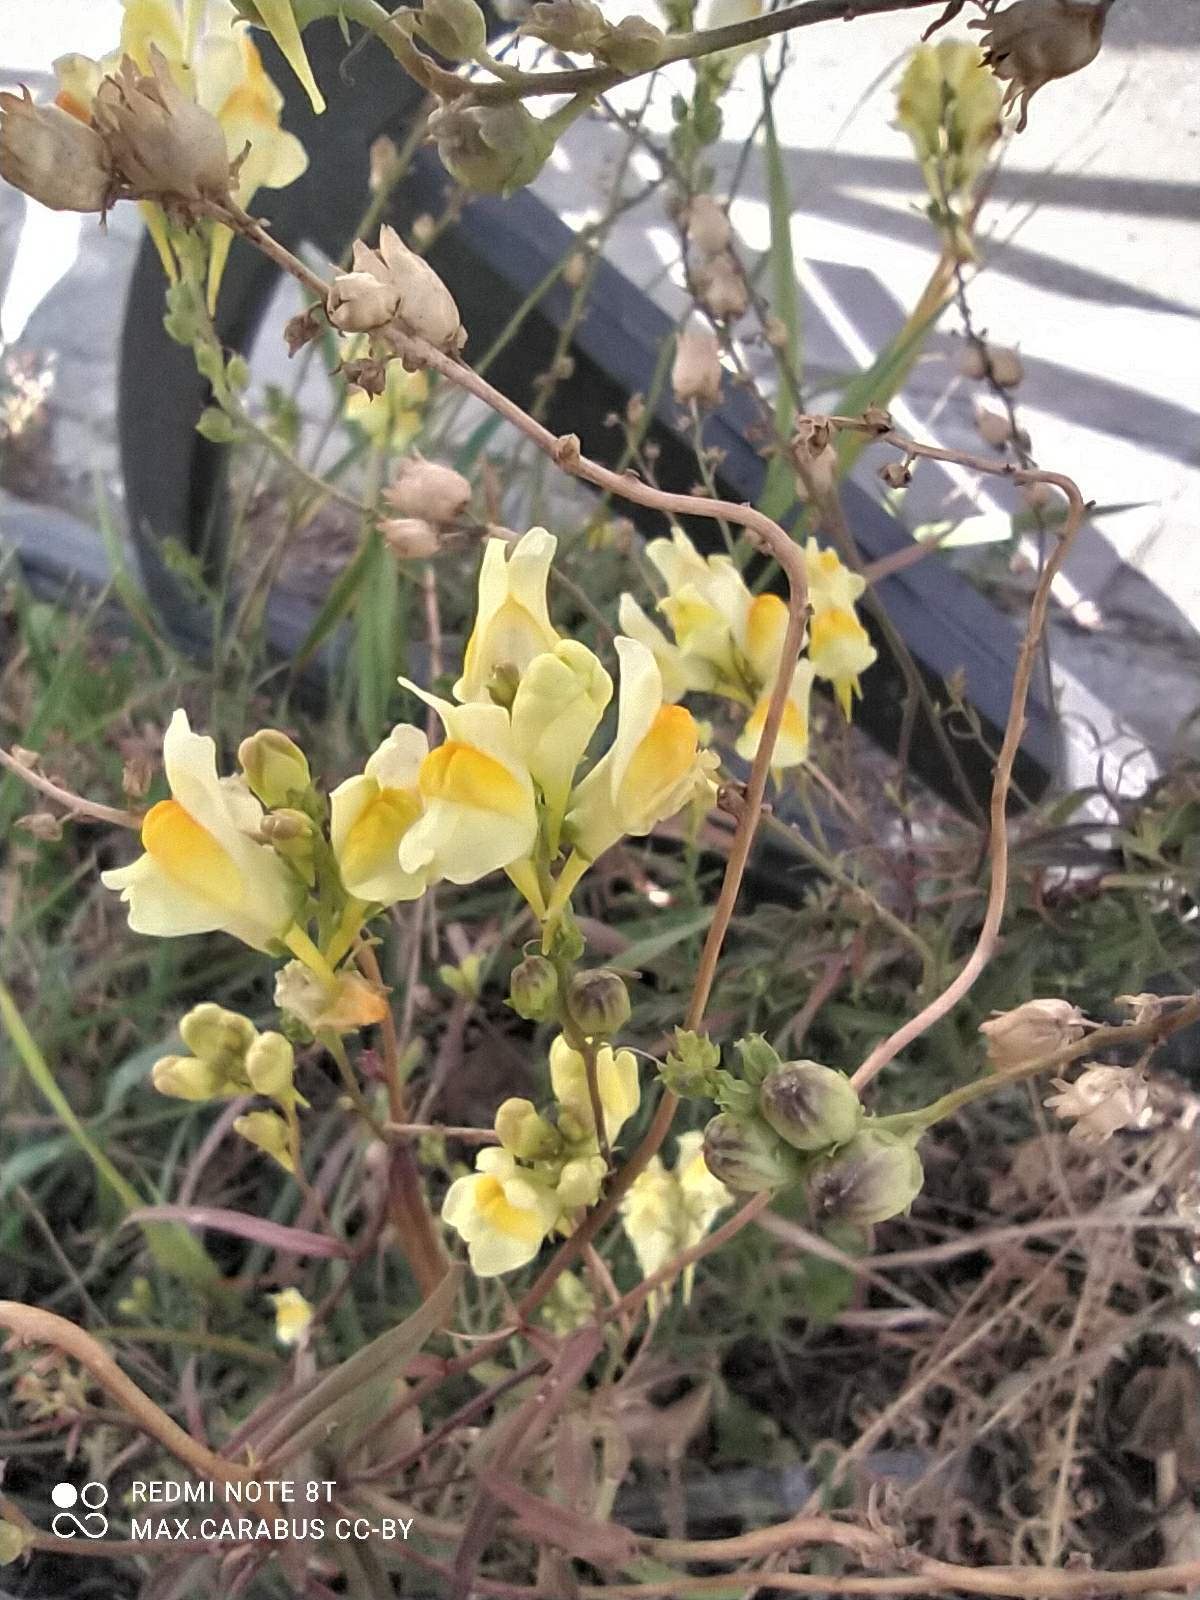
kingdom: Plantae
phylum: Tracheophyta
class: Magnoliopsida
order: Lamiales
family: Plantaginaceae
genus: Linaria
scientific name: Linaria vulgaris
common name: Butter and eggs
